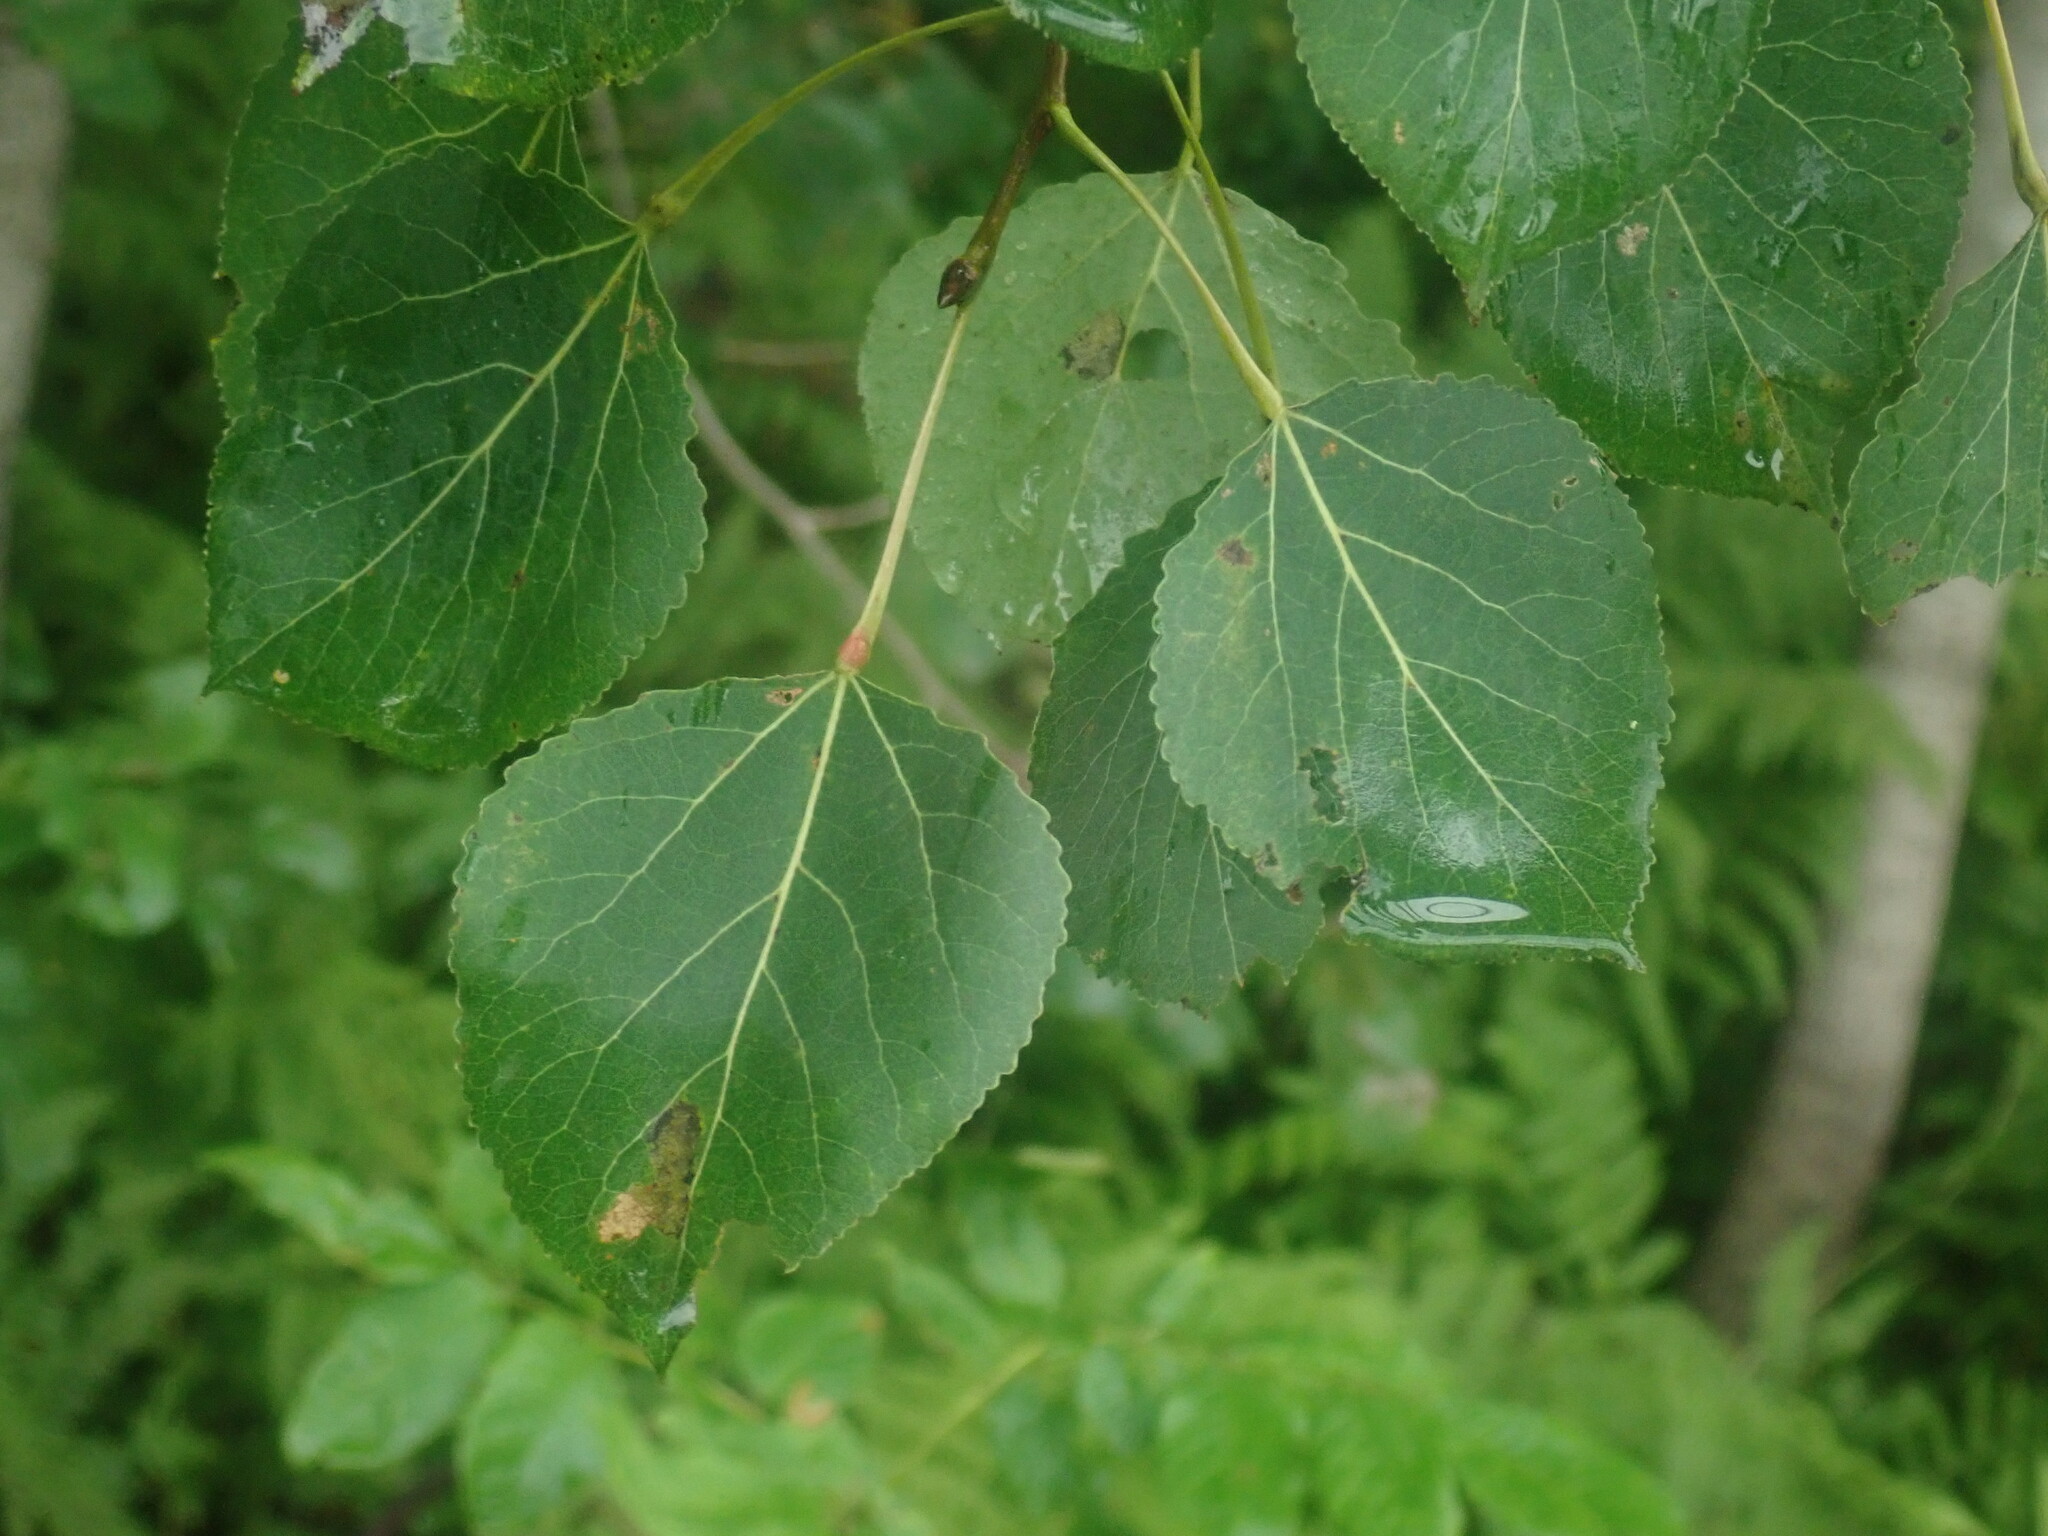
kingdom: Plantae
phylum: Tracheophyta
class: Magnoliopsida
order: Malpighiales
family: Salicaceae
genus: Populus
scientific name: Populus tremuloides
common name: Quaking aspen
